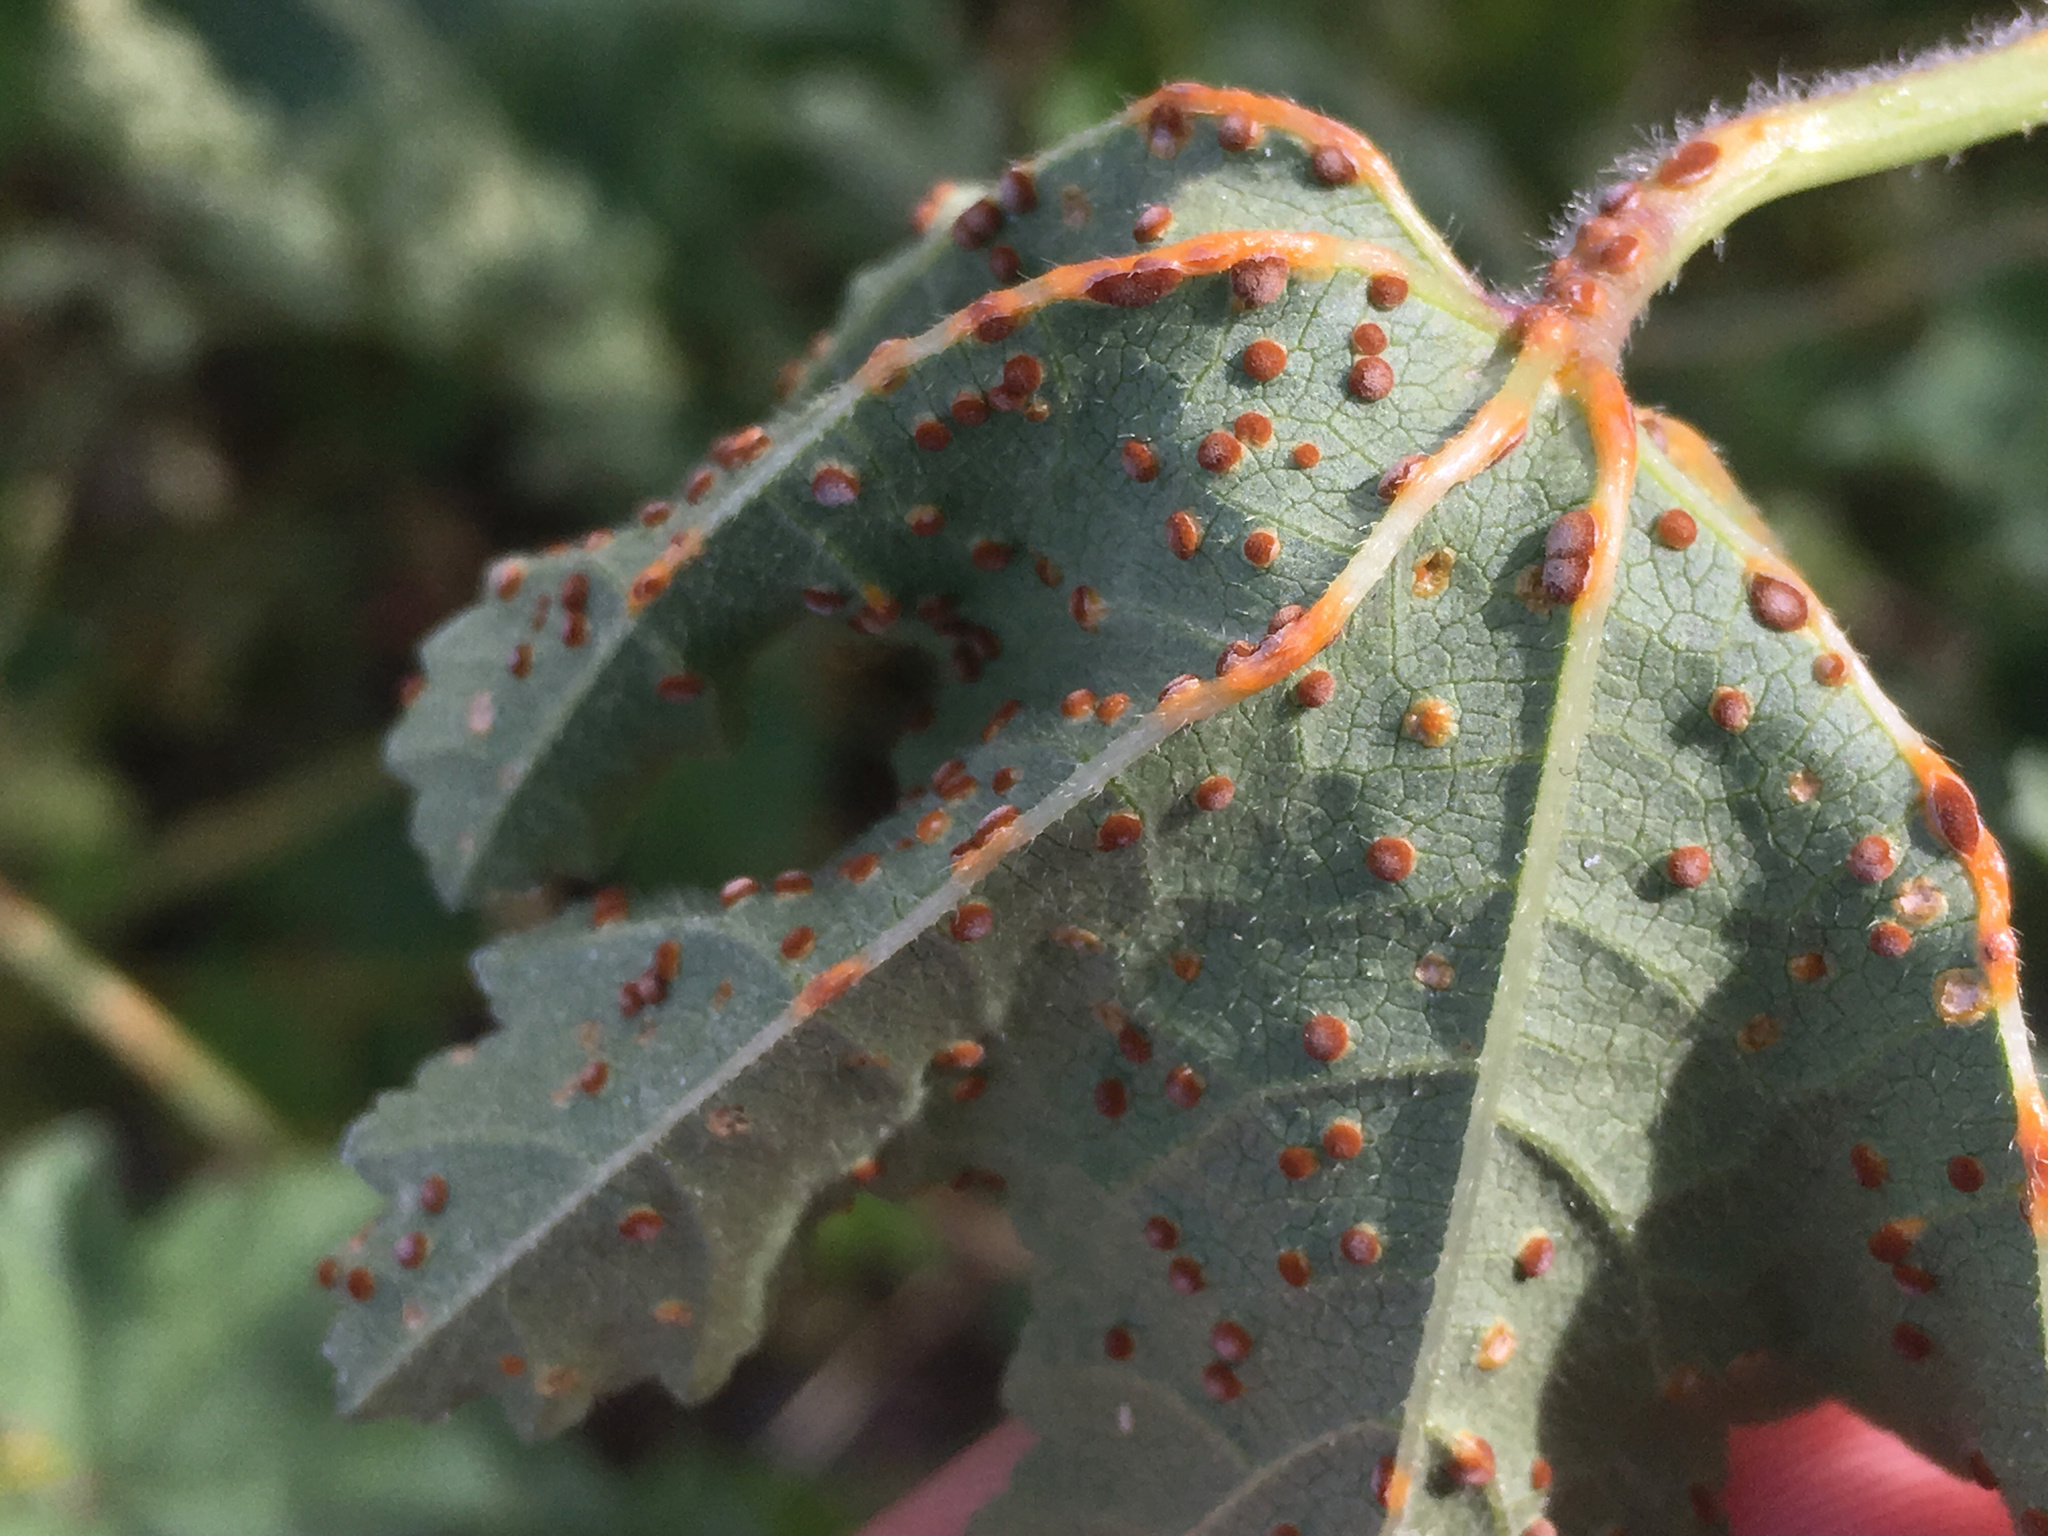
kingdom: Fungi
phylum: Basidiomycota
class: Pucciniomycetes
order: Pucciniales
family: Pucciniaceae
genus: Puccinia
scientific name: Puccinia malvacearum
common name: Hollyhock rust
